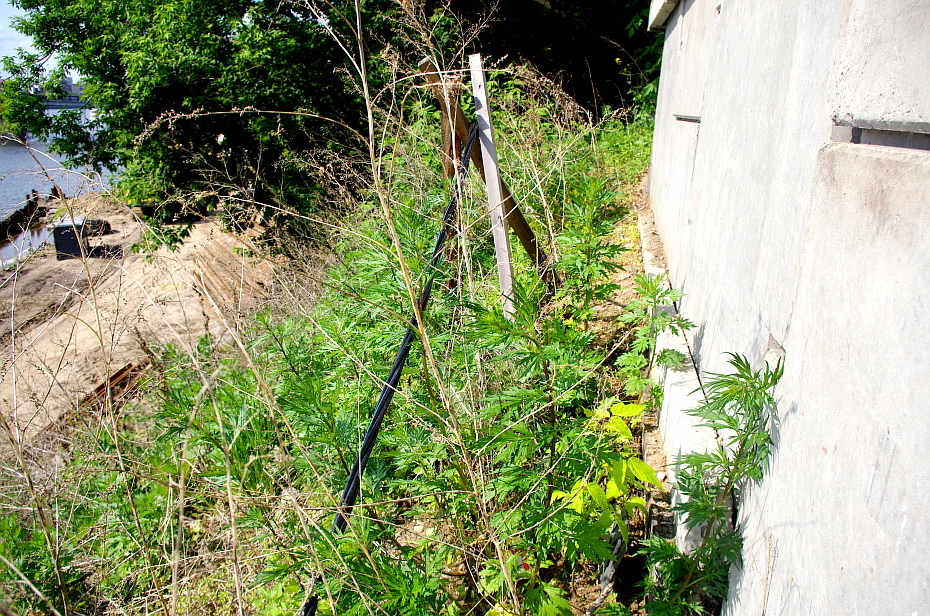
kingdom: Plantae
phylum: Tracheophyta
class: Magnoliopsida
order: Asterales
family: Asteraceae
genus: Artemisia
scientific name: Artemisia vulgaris
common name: Mugwort
